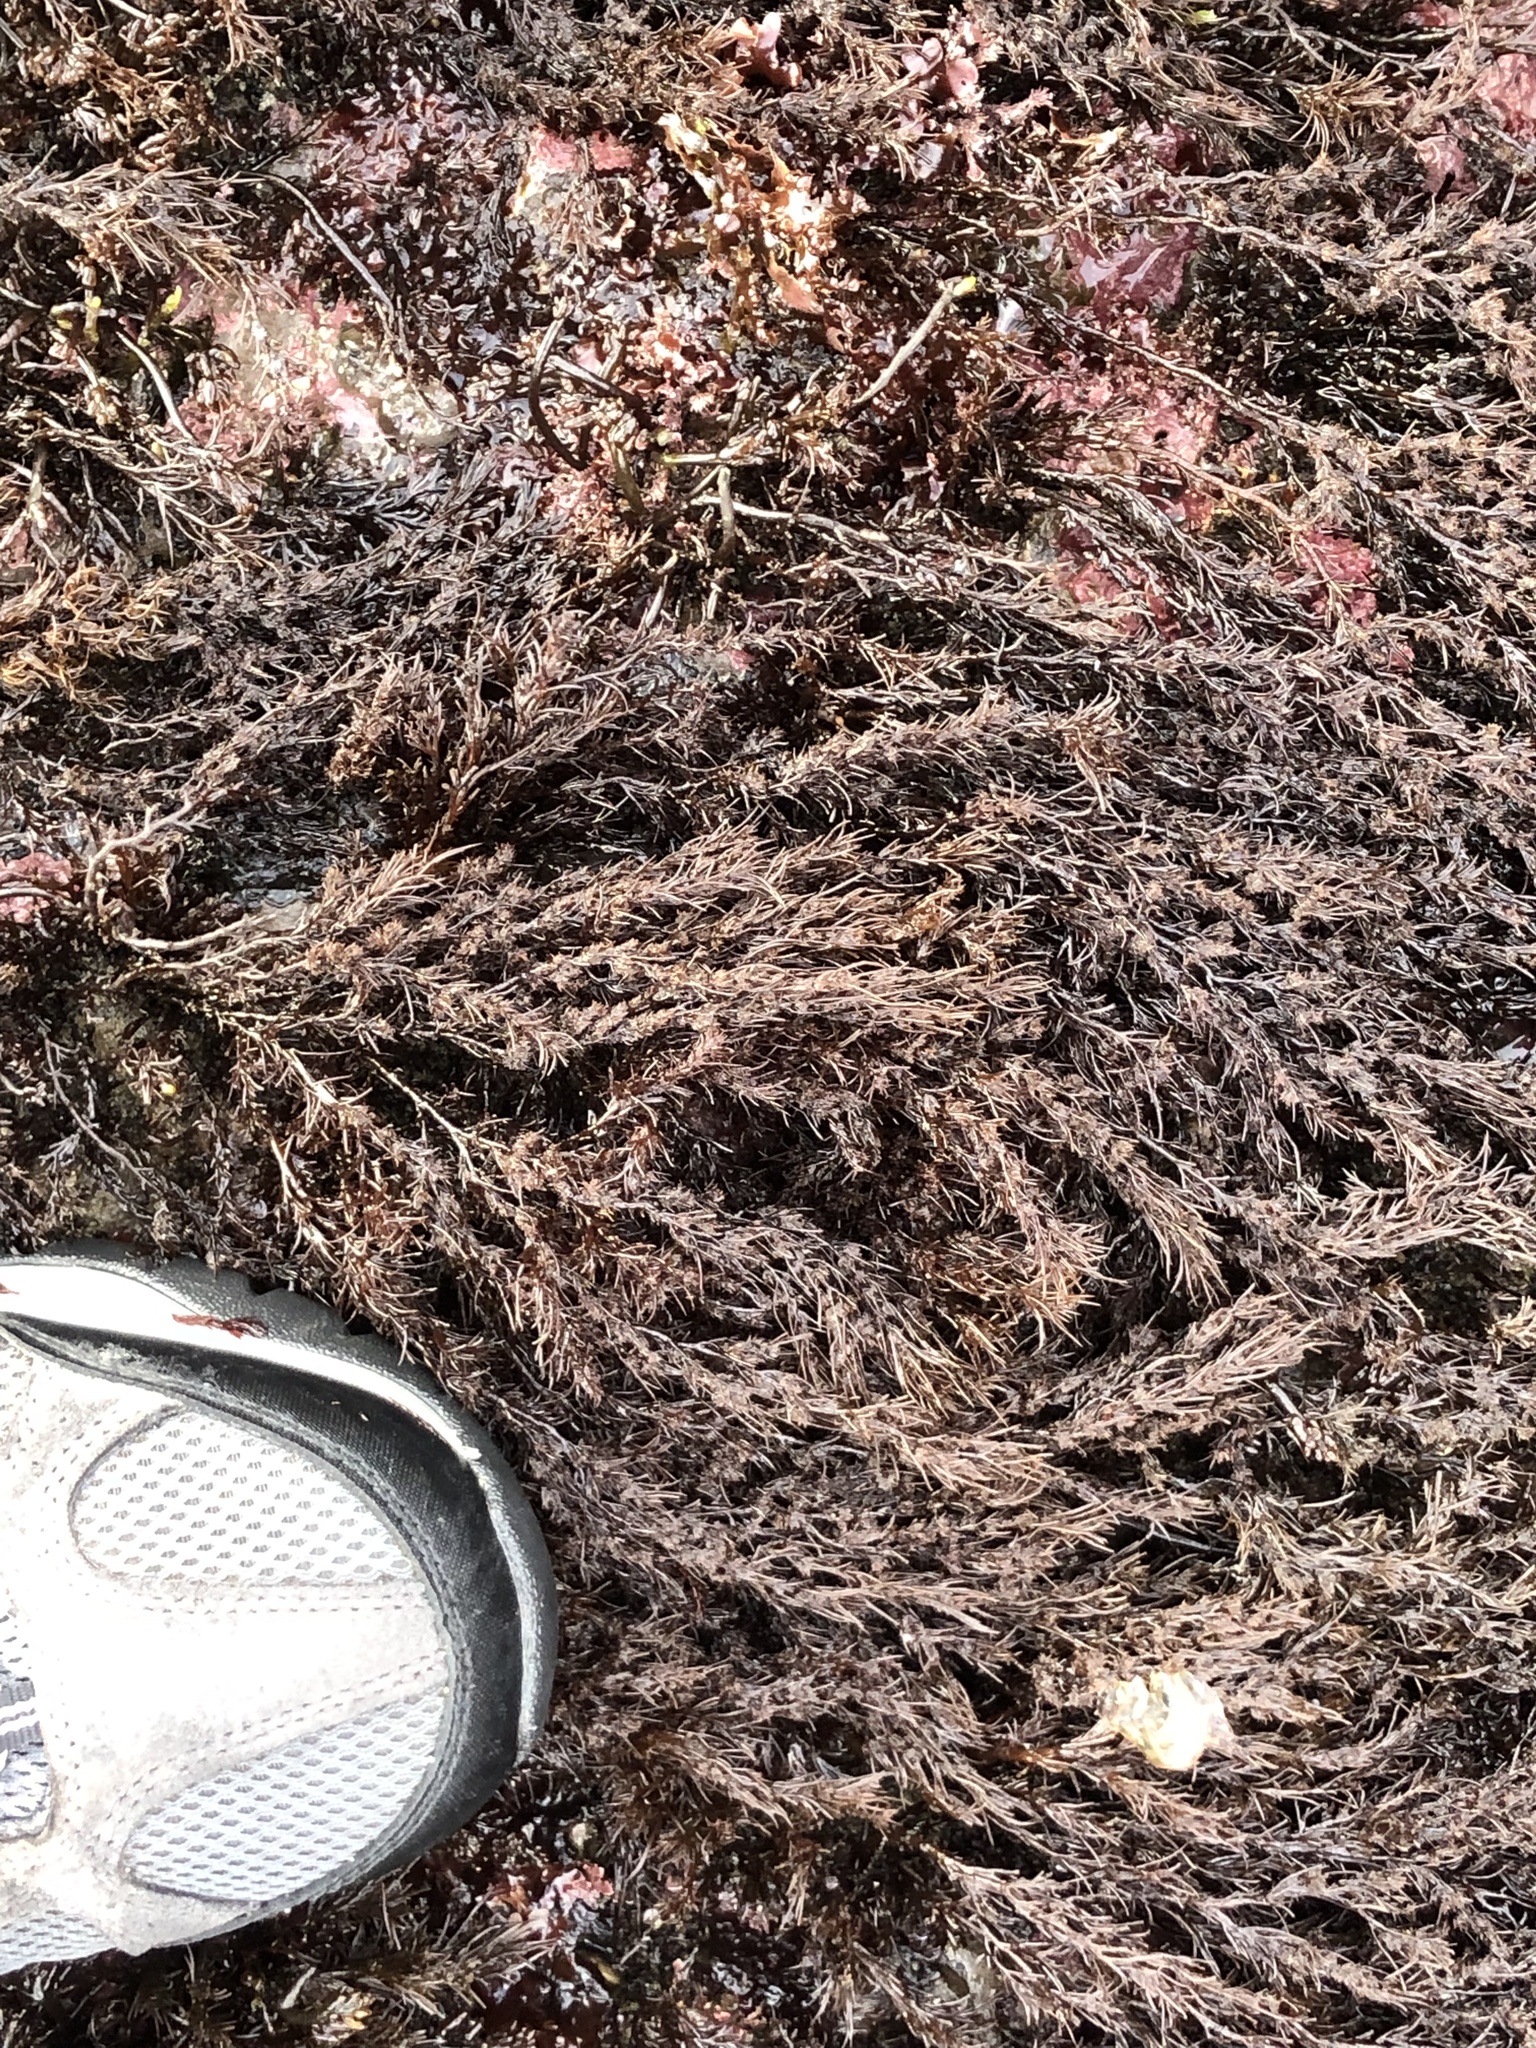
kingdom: Plantae
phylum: Rhodophyta
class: Florideophyceae
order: Ceramiales
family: Rhodomelaceae
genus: Neorhodomela
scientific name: Neorhodomela larix
